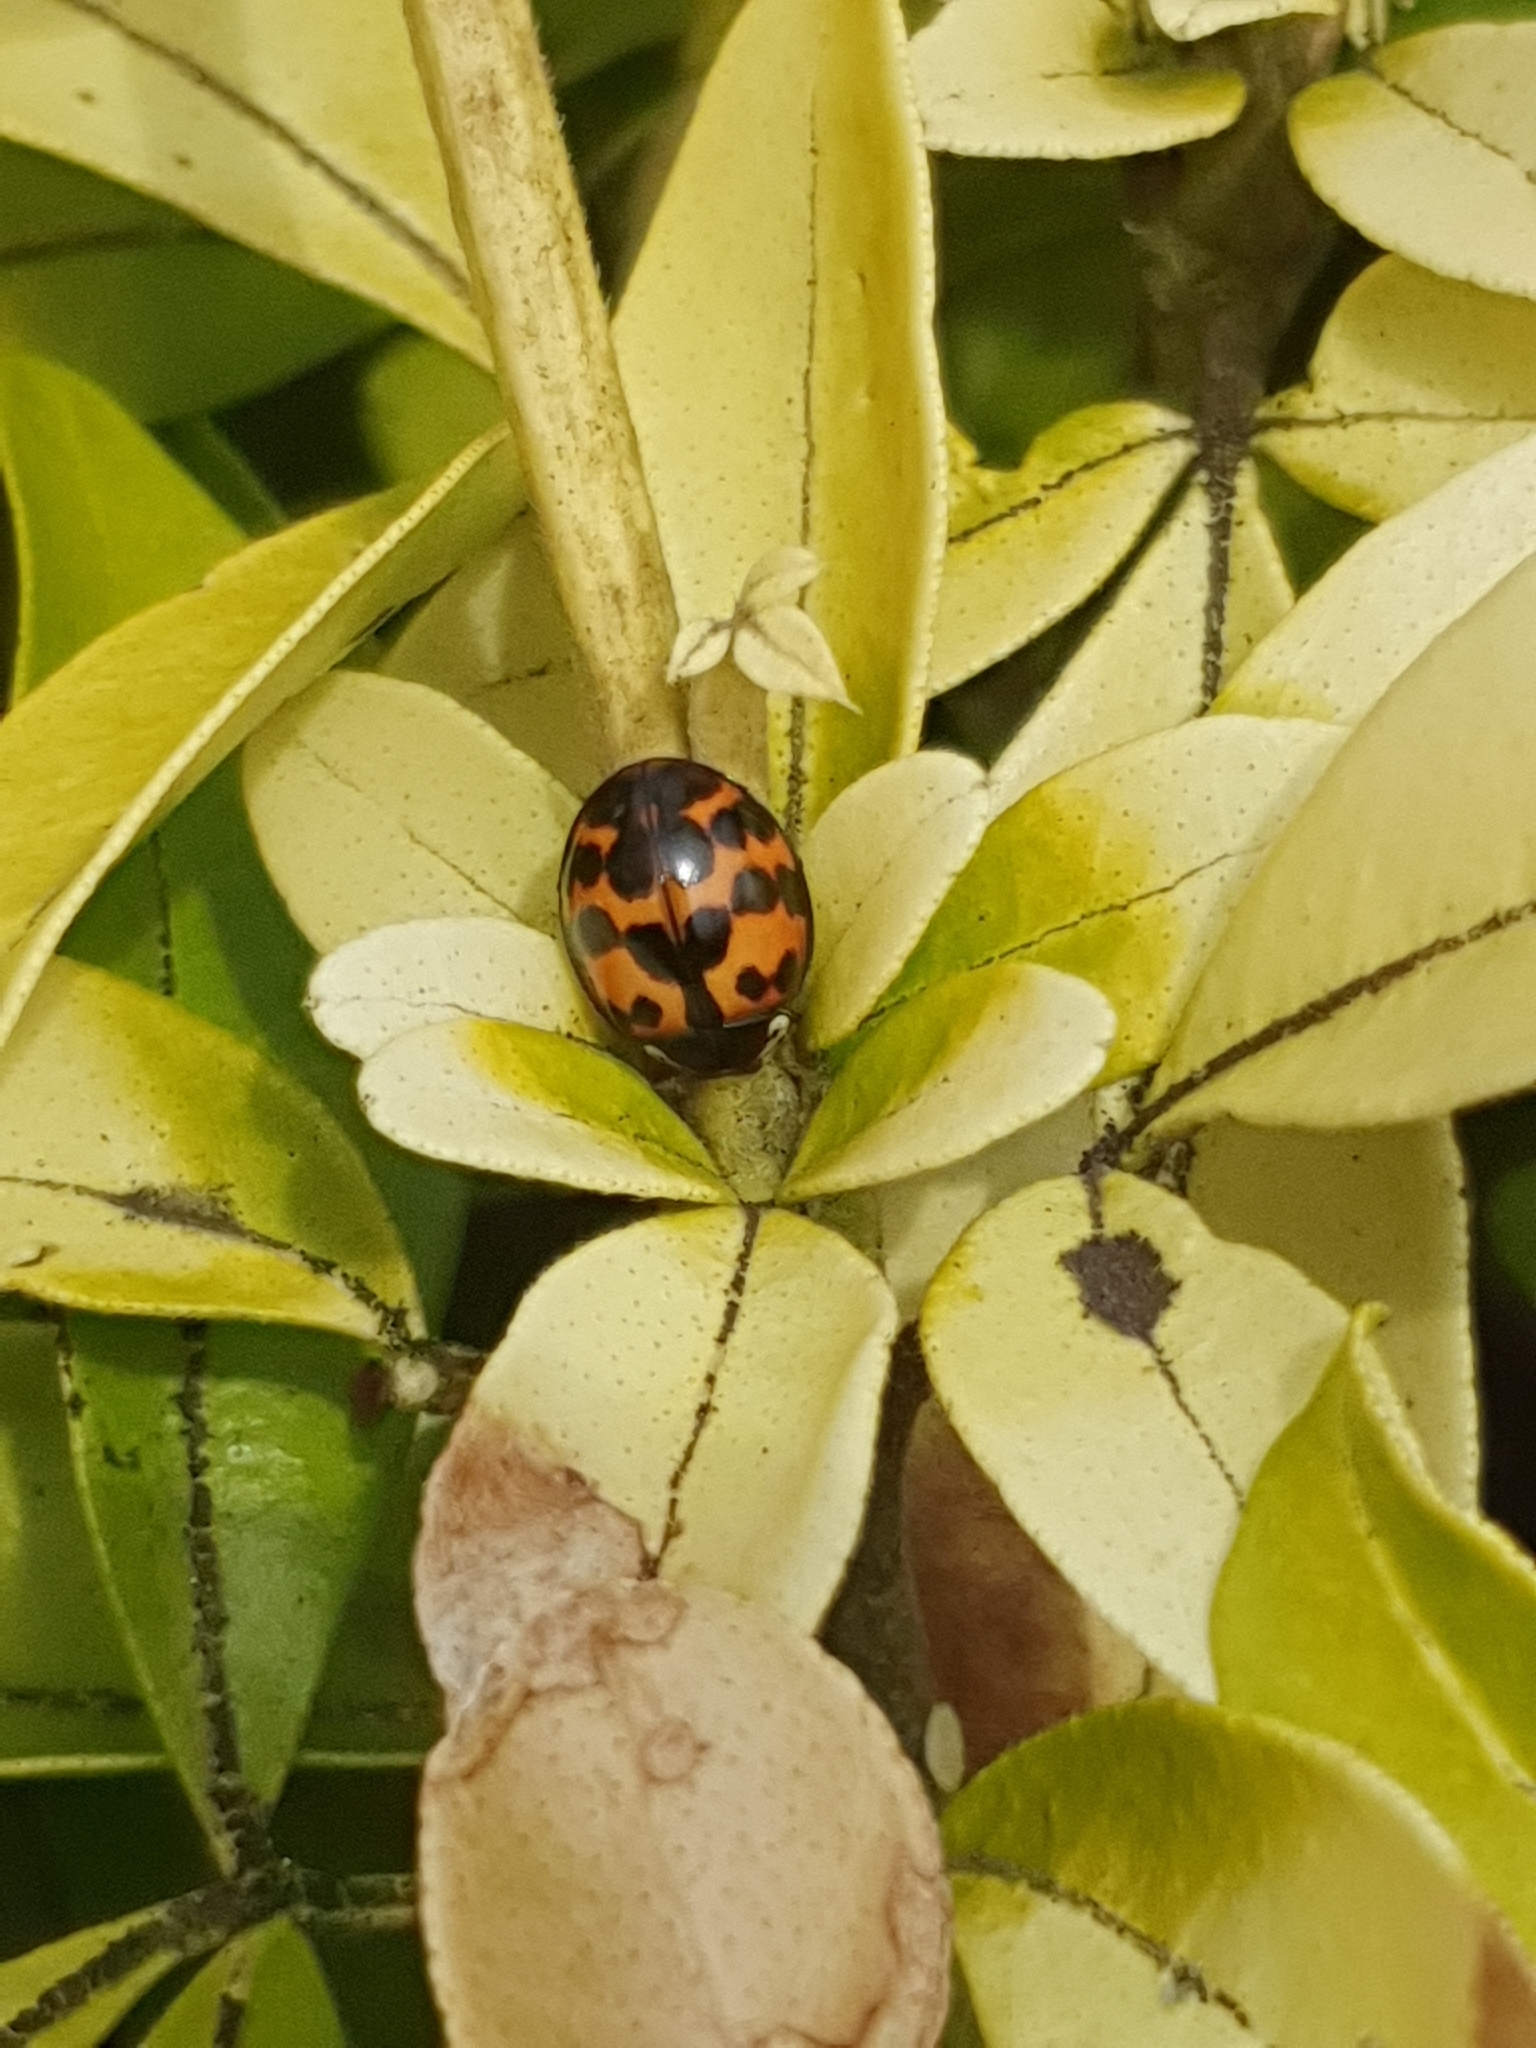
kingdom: Animalia
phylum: Arthropoda
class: Insecta
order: Coleoptera
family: Coccinellidae
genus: Harmonia
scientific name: Harmonia axyridis
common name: Harlequin ladybird
